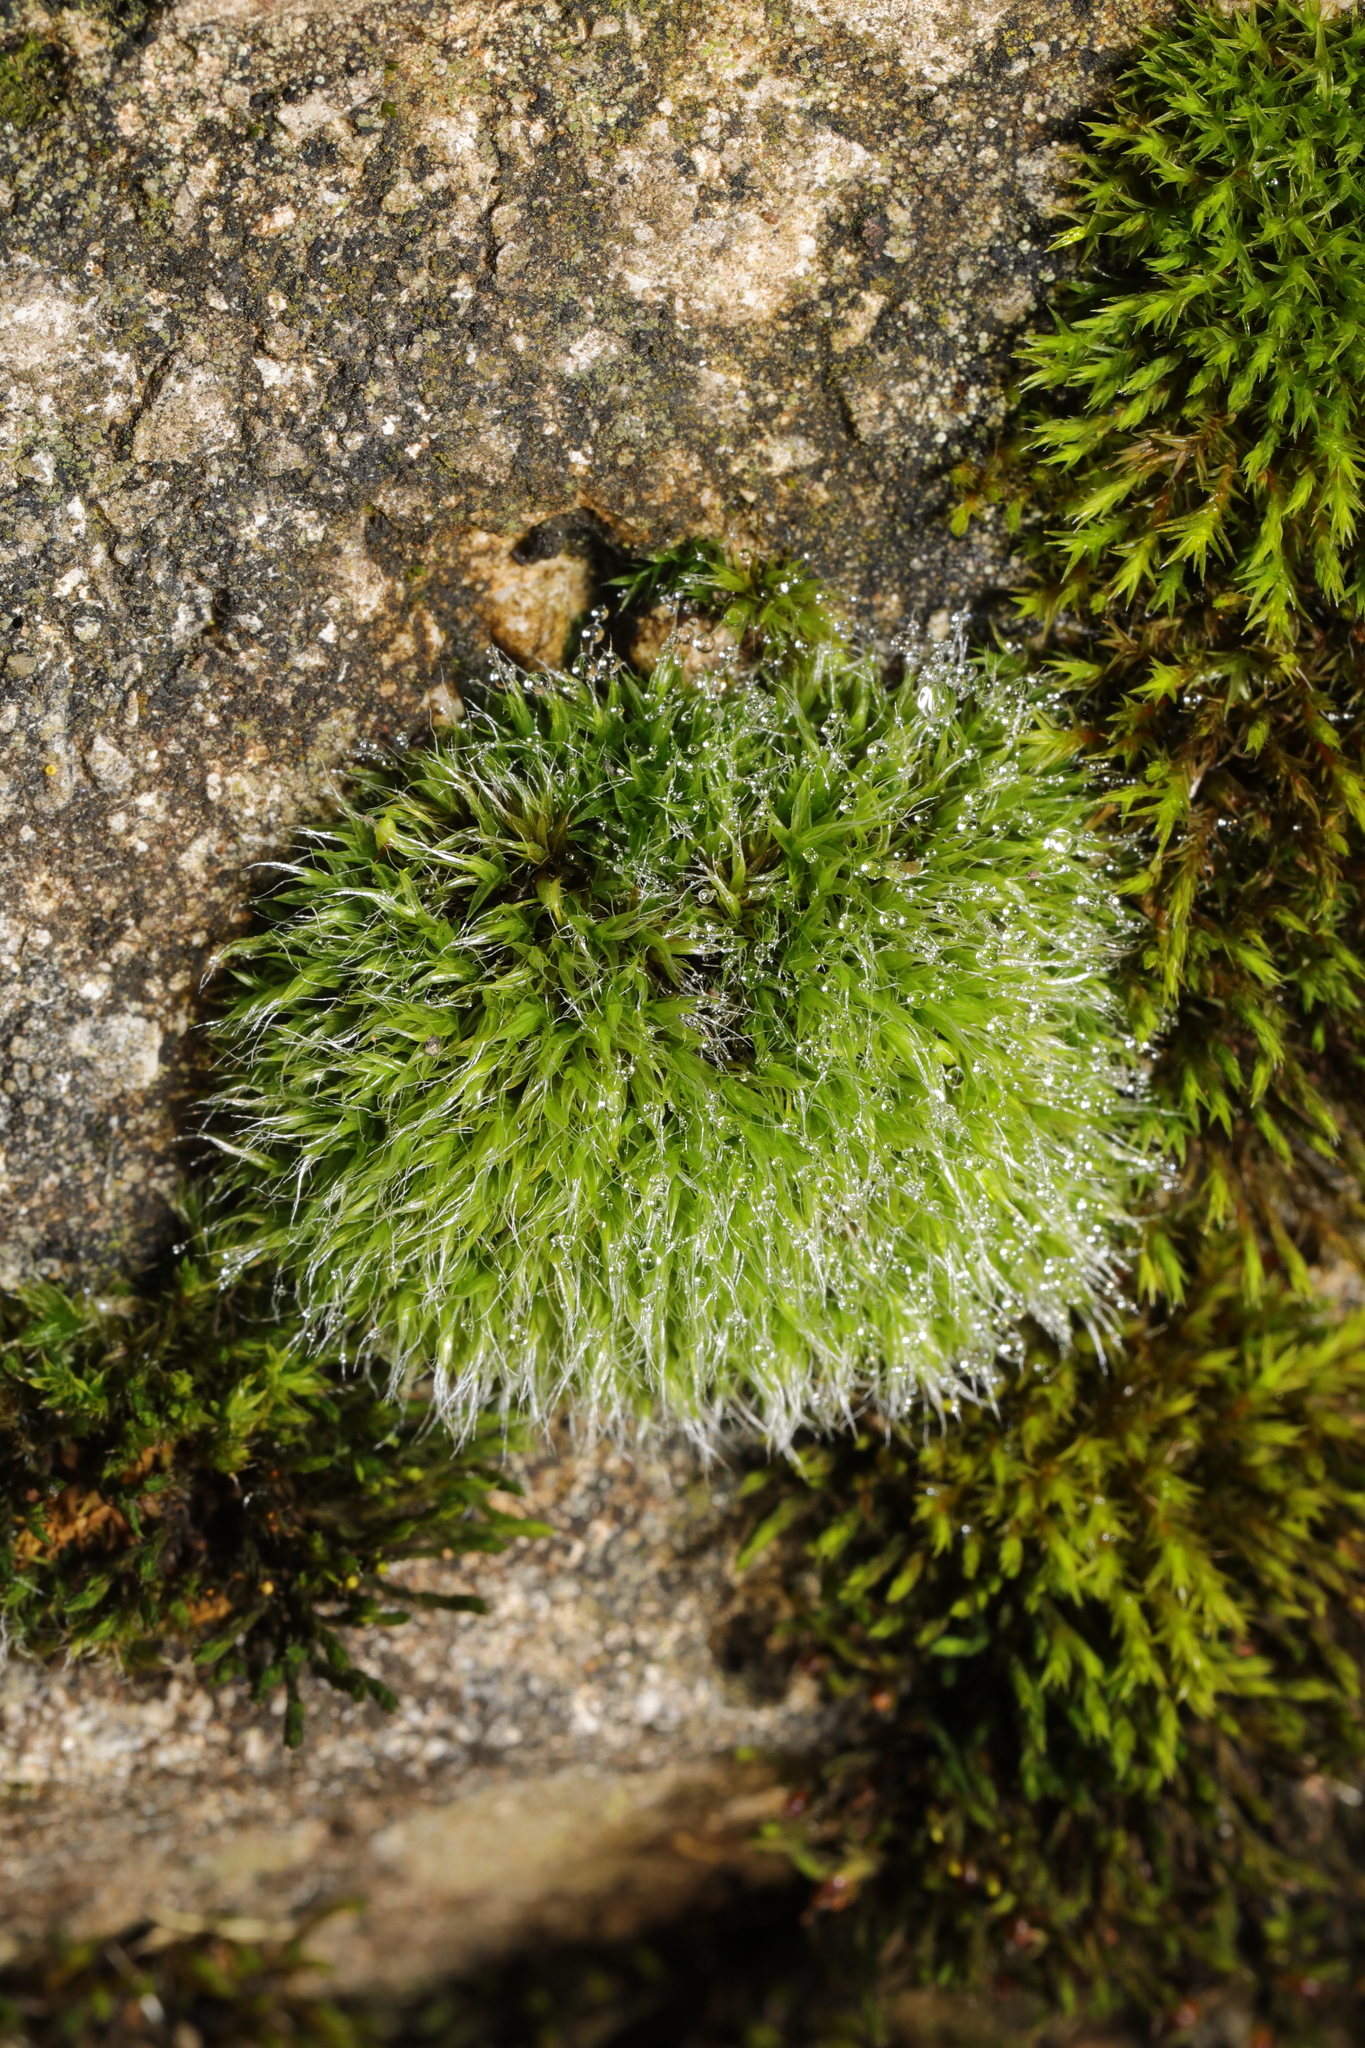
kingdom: Plantae
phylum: Bryophyta
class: Bryopsida
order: Grimmiales
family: Grimmiaceae
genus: Grimmia
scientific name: Grimmia pulvinata
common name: Grey-cushioned grimmia
